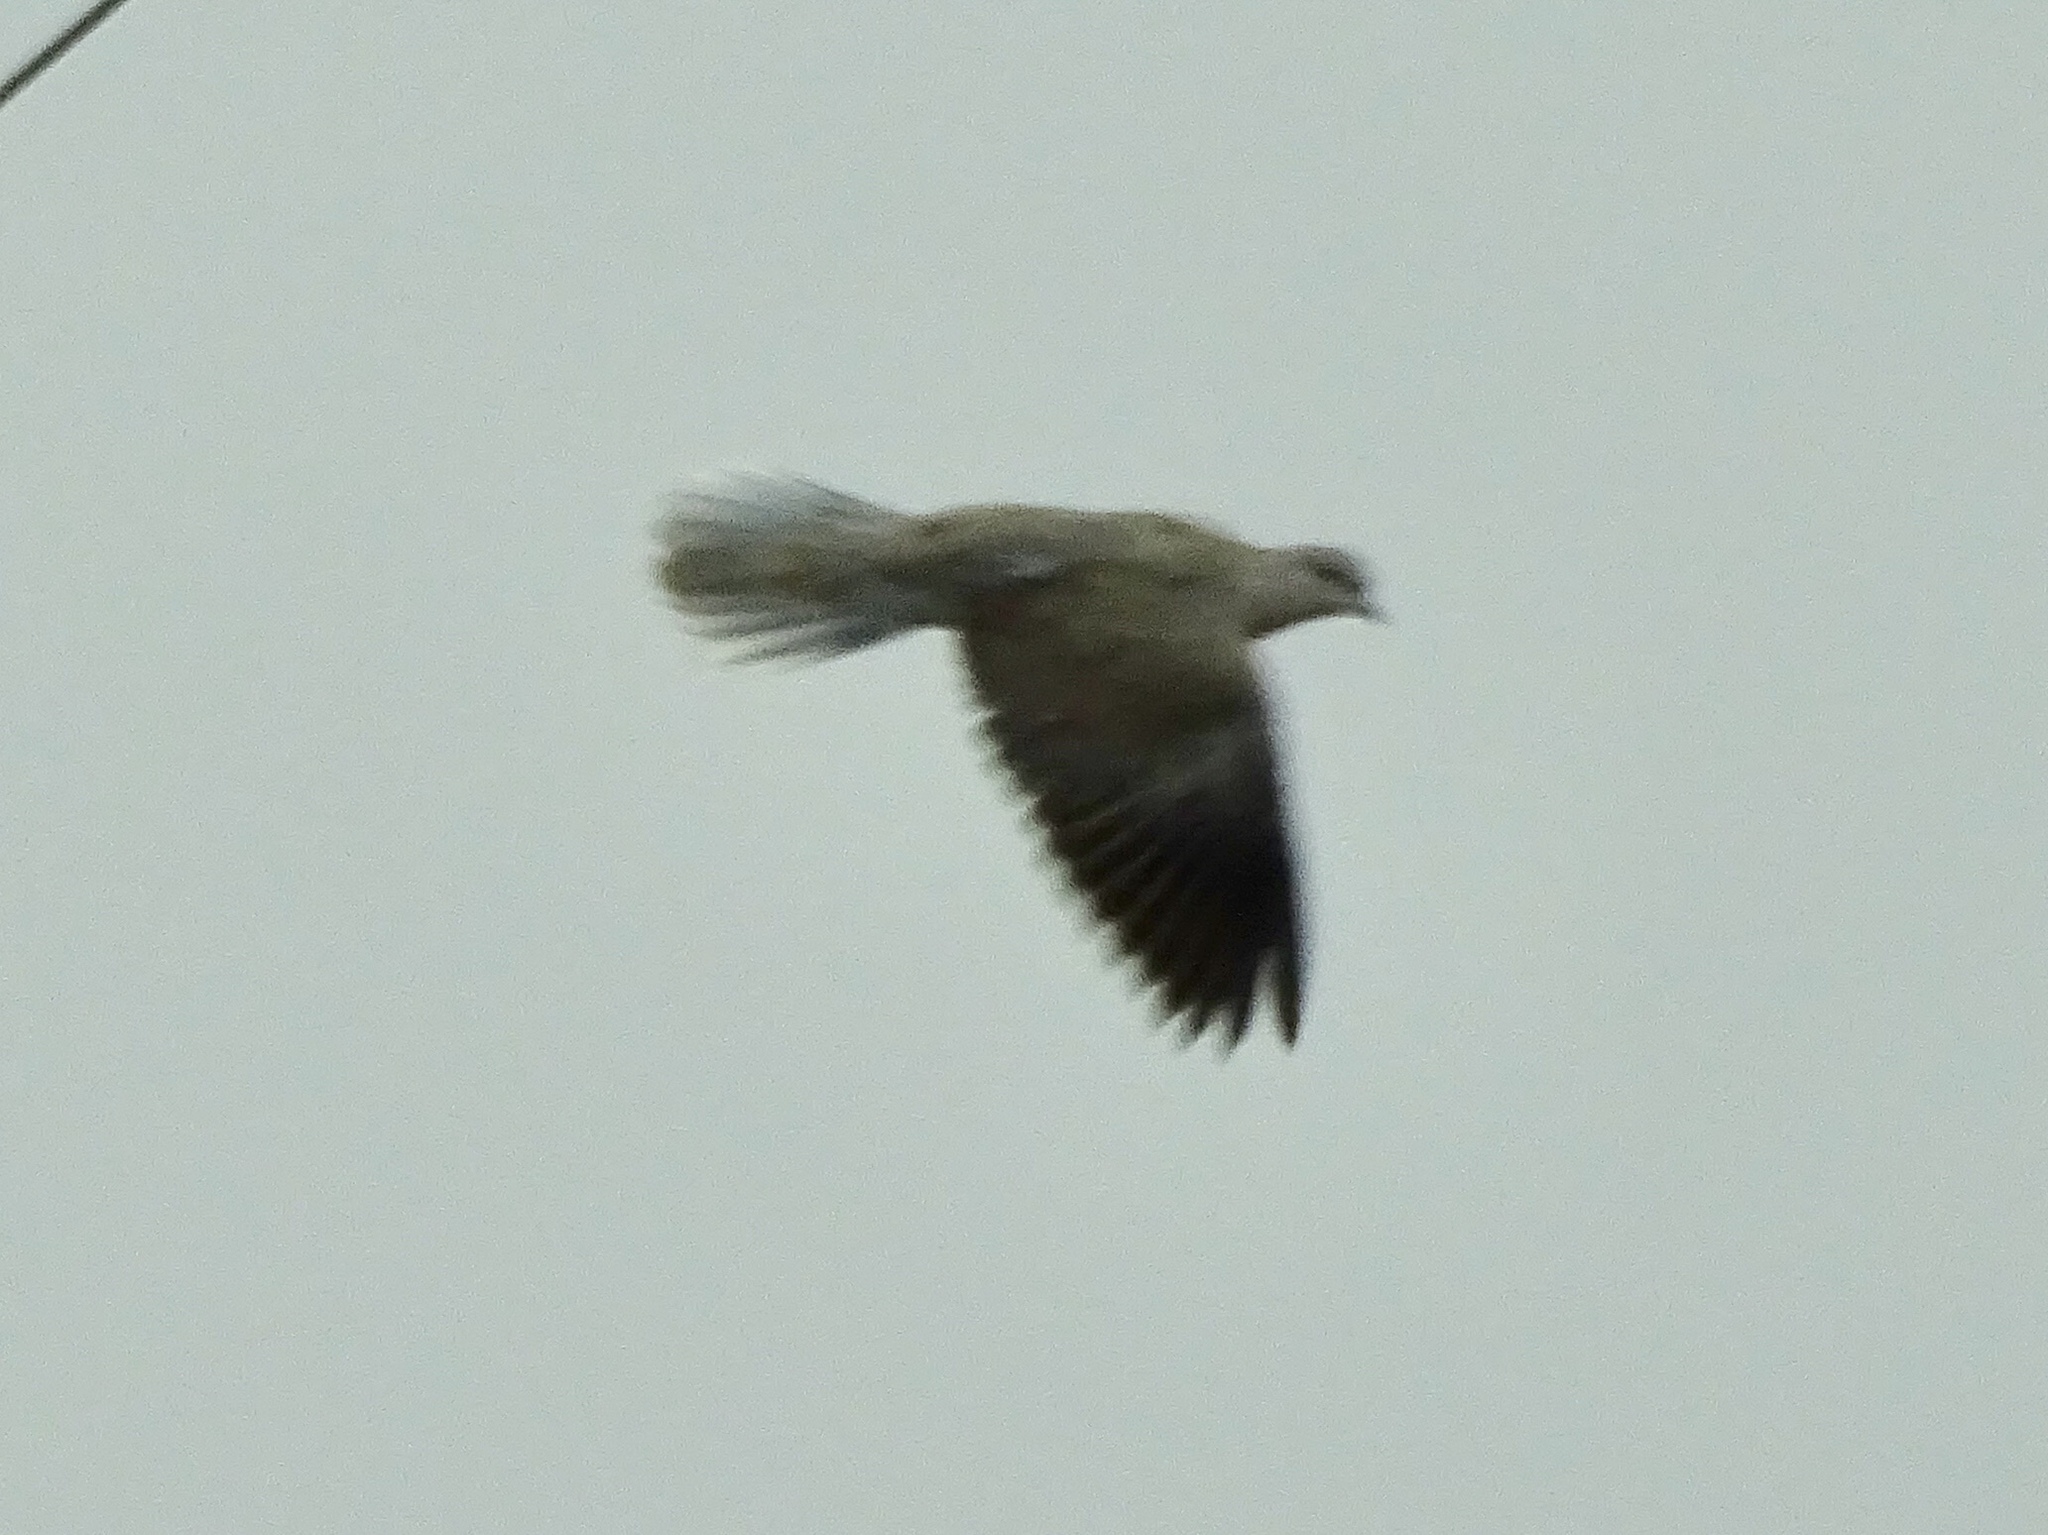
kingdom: Animalia
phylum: Chordata
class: Aves
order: Columbiformes
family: Columbidae
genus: Streptopelia
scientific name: Streptopelia decaocto
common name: Eurasian collared dove
